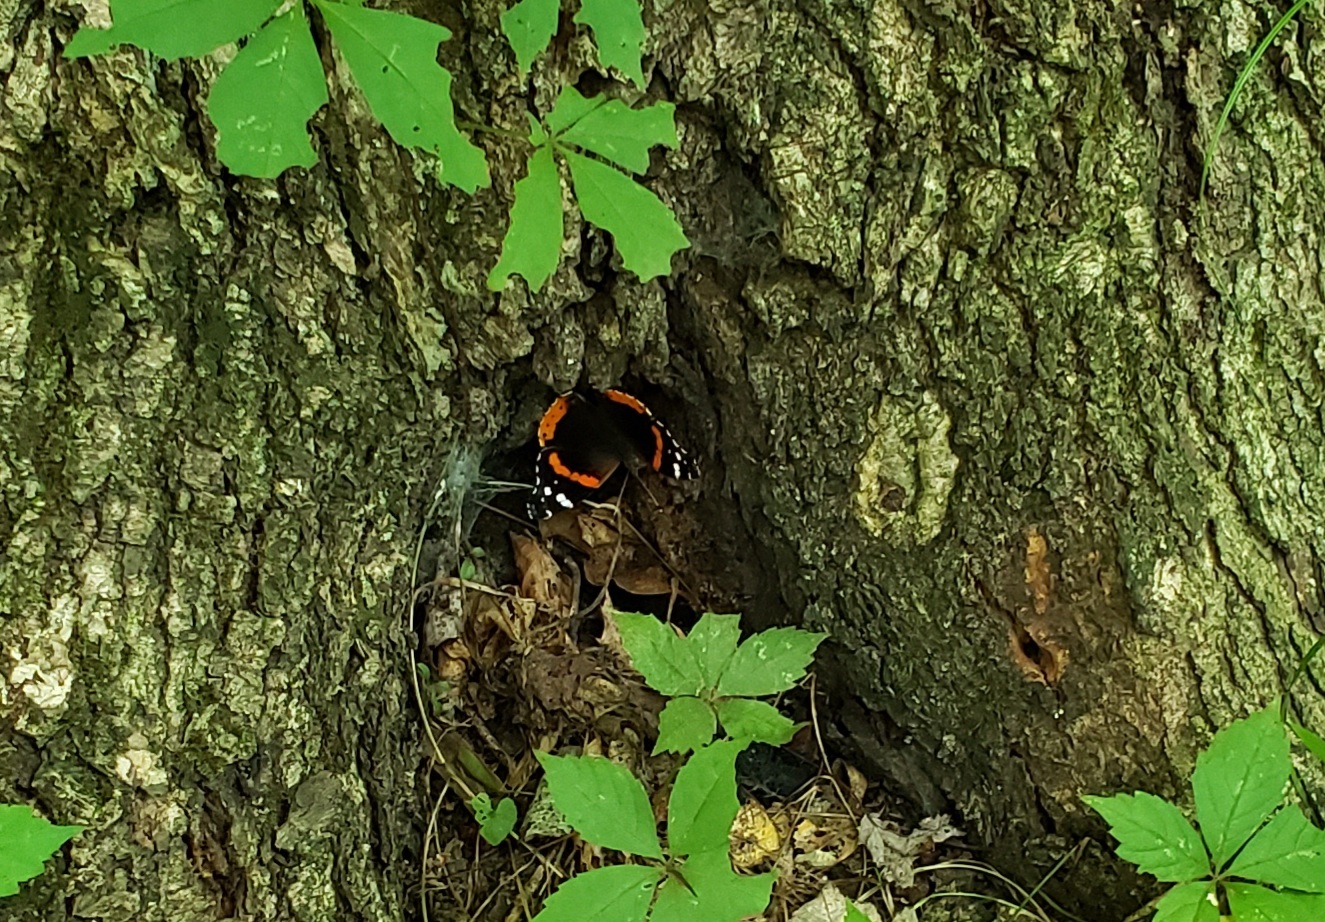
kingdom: Animalia
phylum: Arthropoda
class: Insecta
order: Lepidoptera
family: Nymphalidae
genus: Vanessa
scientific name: Vanessa atalanta
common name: Red admiral
